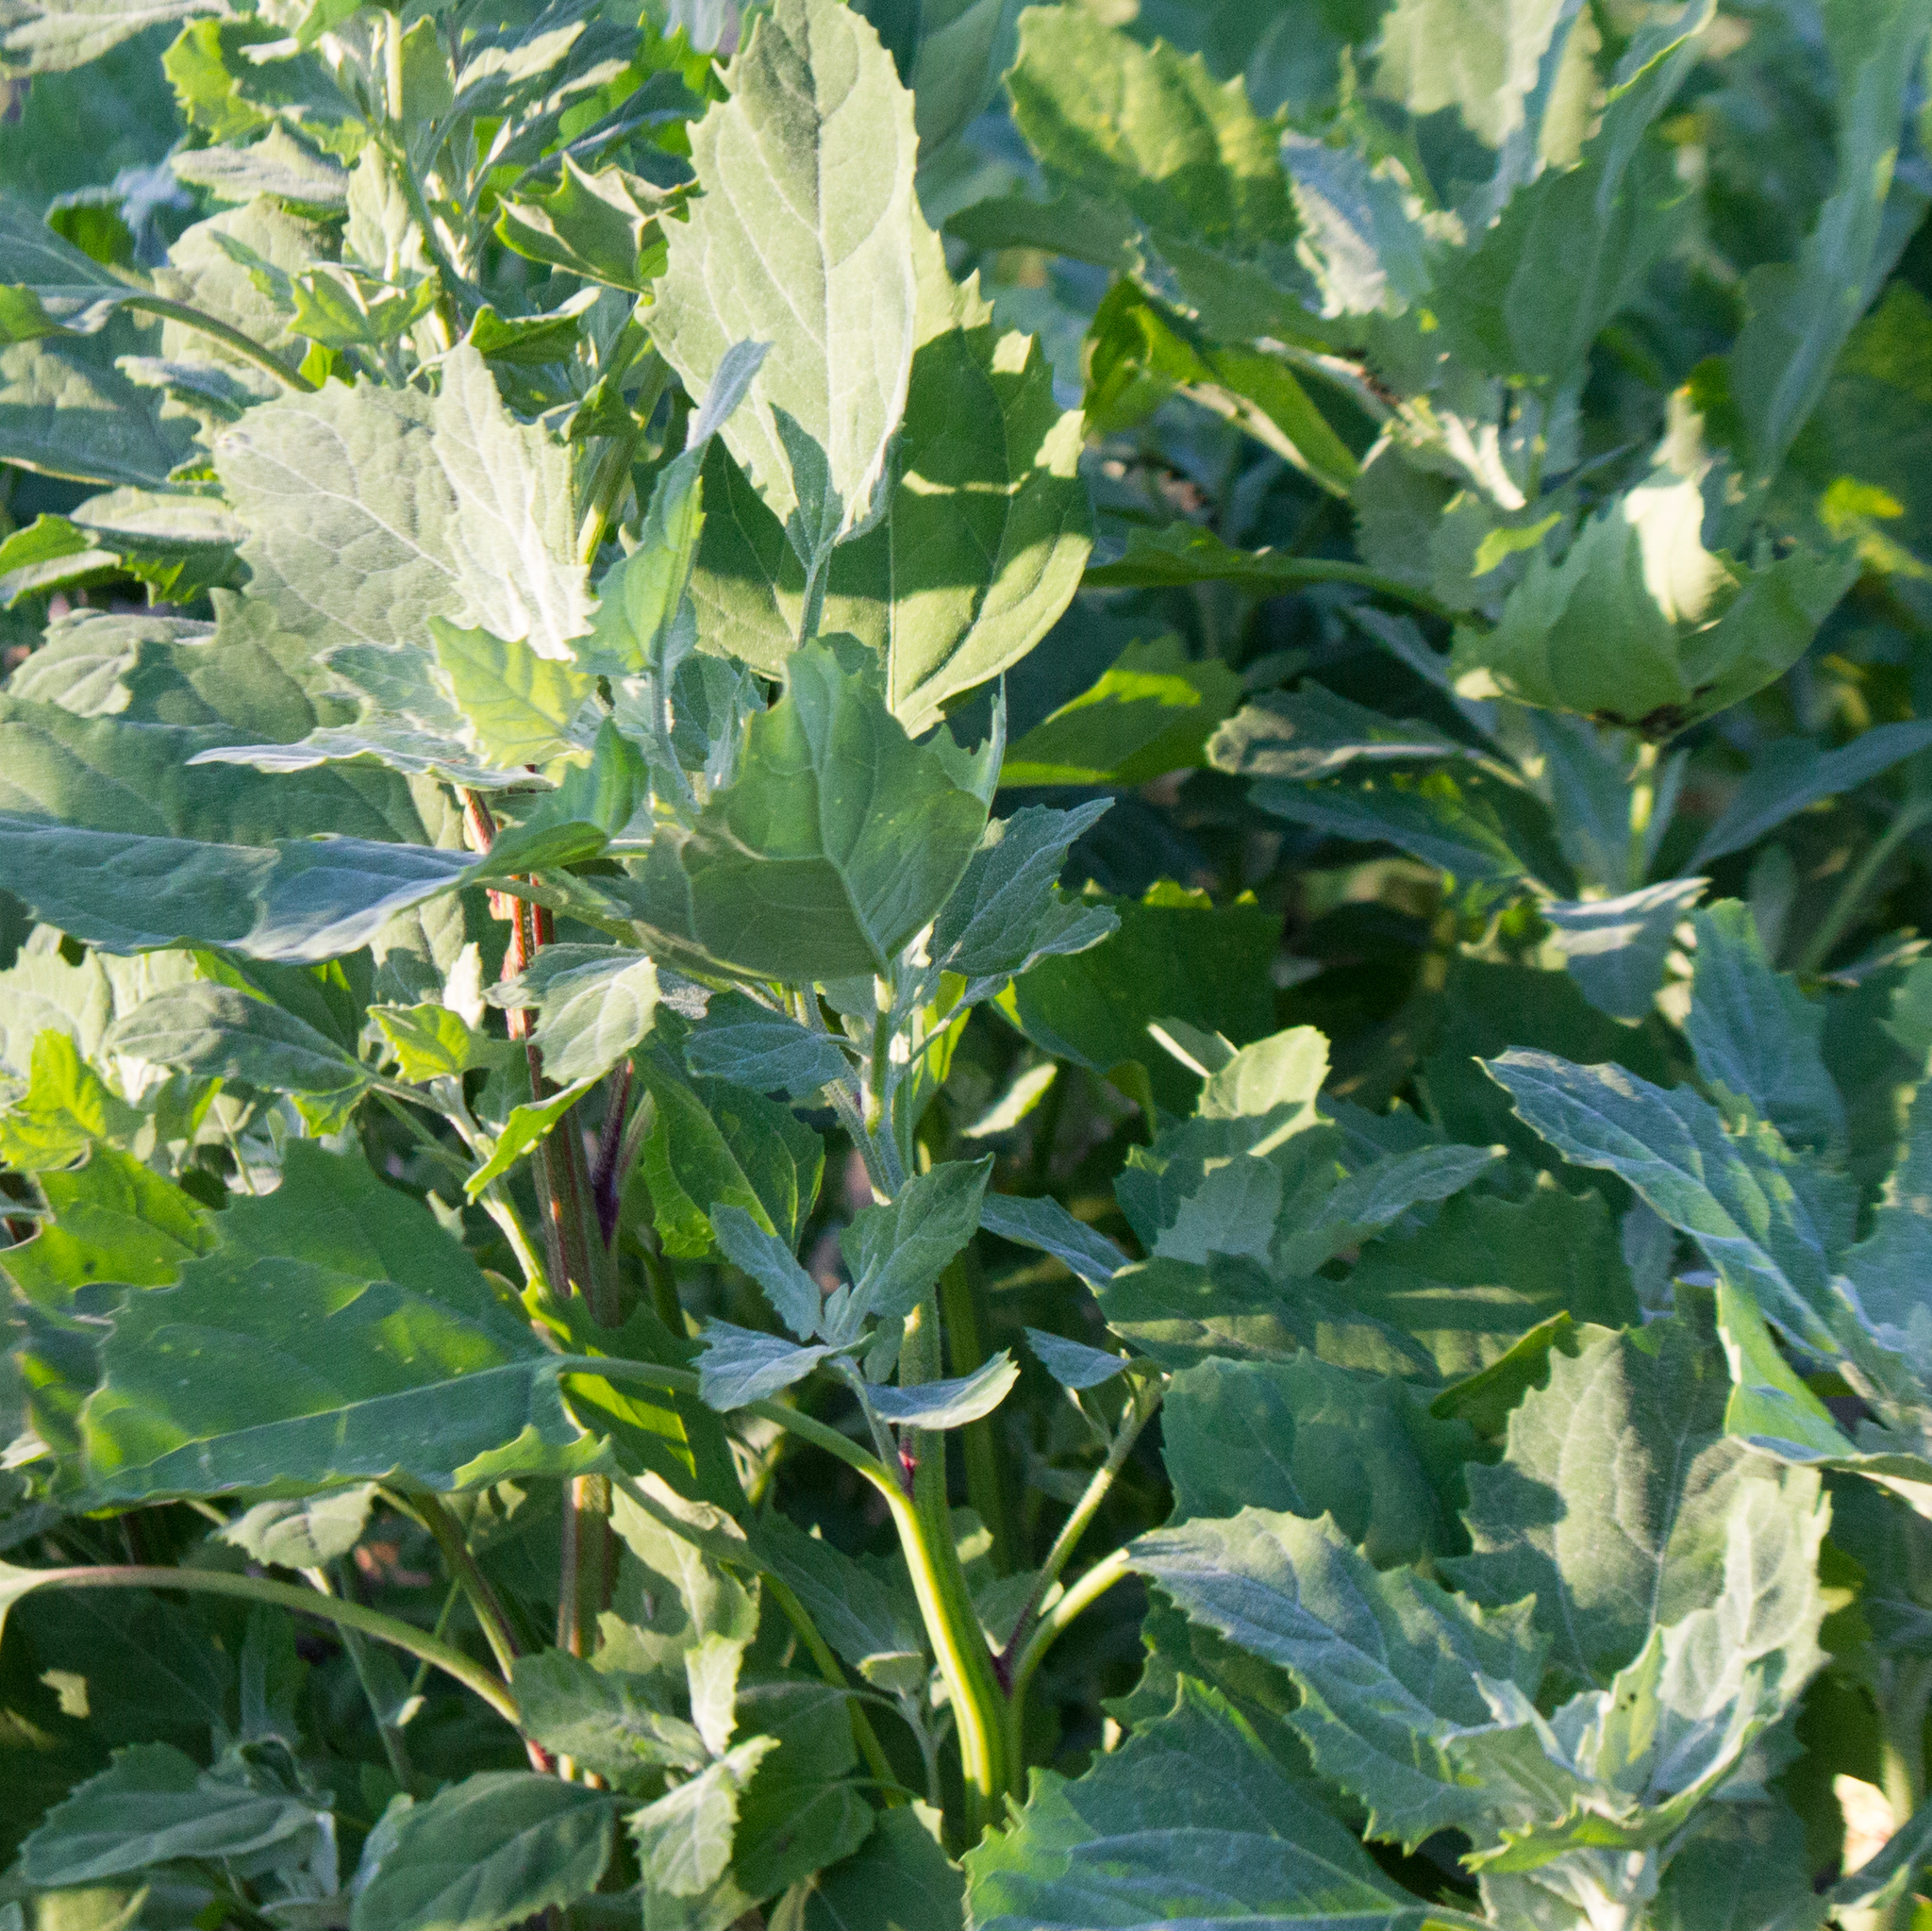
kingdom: Plantae
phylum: Tracheophyta
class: Magnoliopsida
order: Caryophyllales
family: Amaranthaceae
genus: Chenopodium
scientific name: Chenopodium album
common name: Fat-hen
